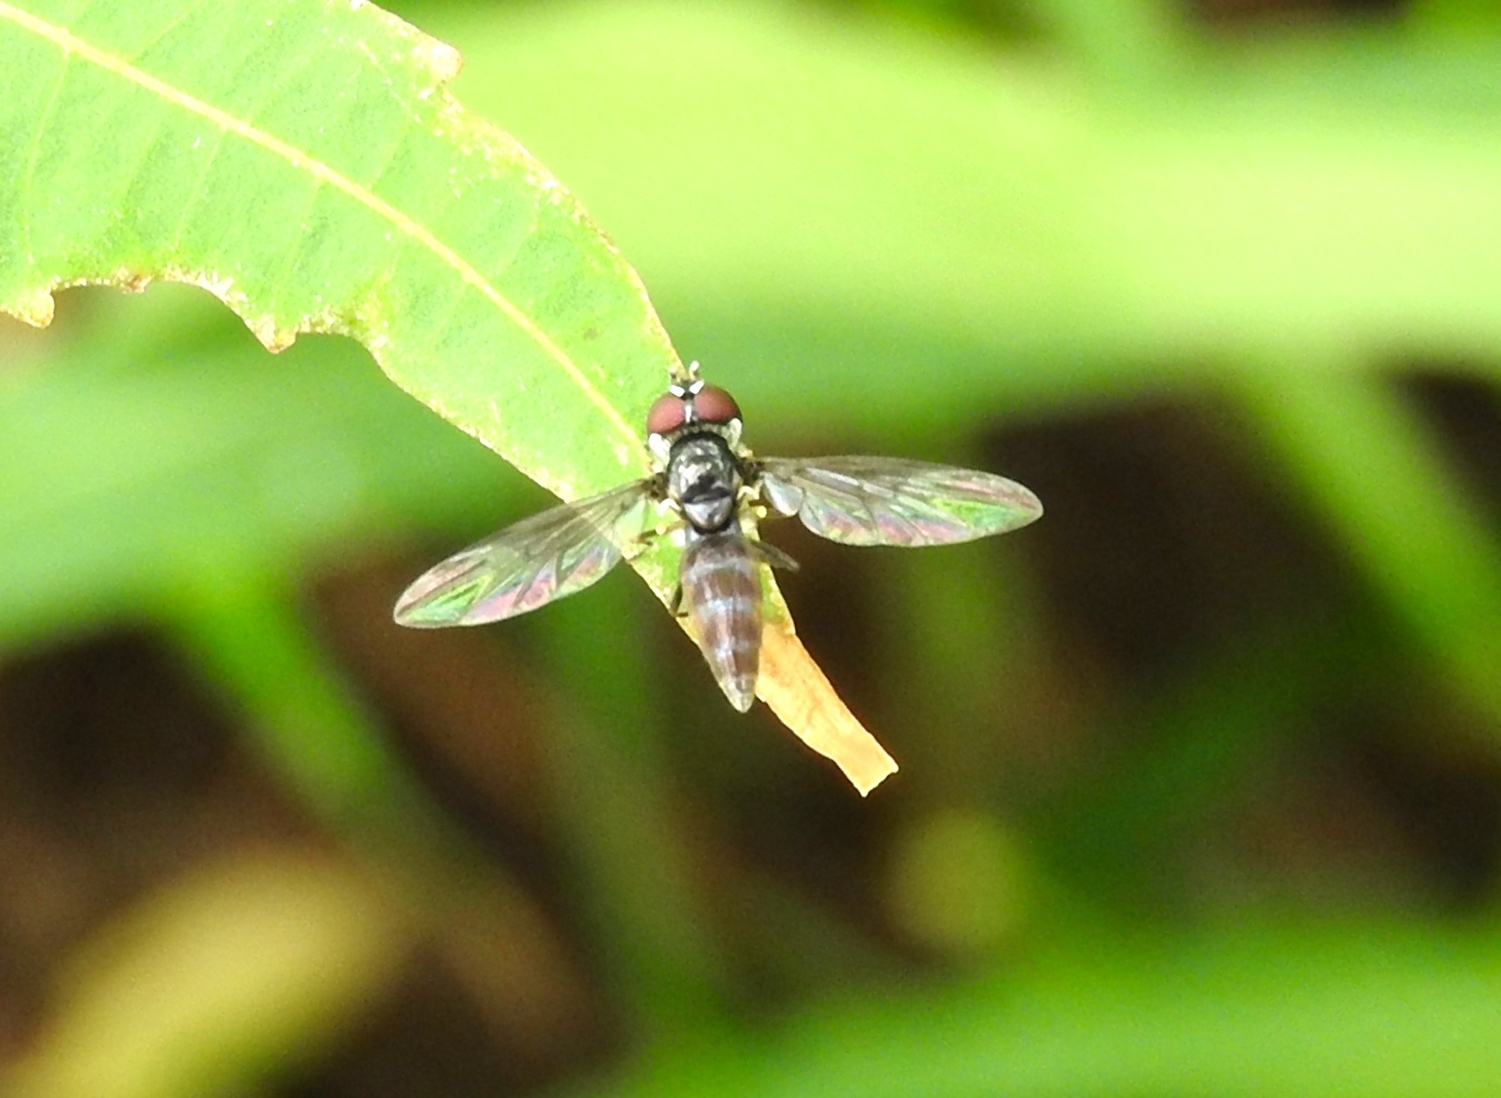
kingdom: Animalia
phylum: Arthropoda
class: Insecta
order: Diptera
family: Syrphidae
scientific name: Syrphidae
